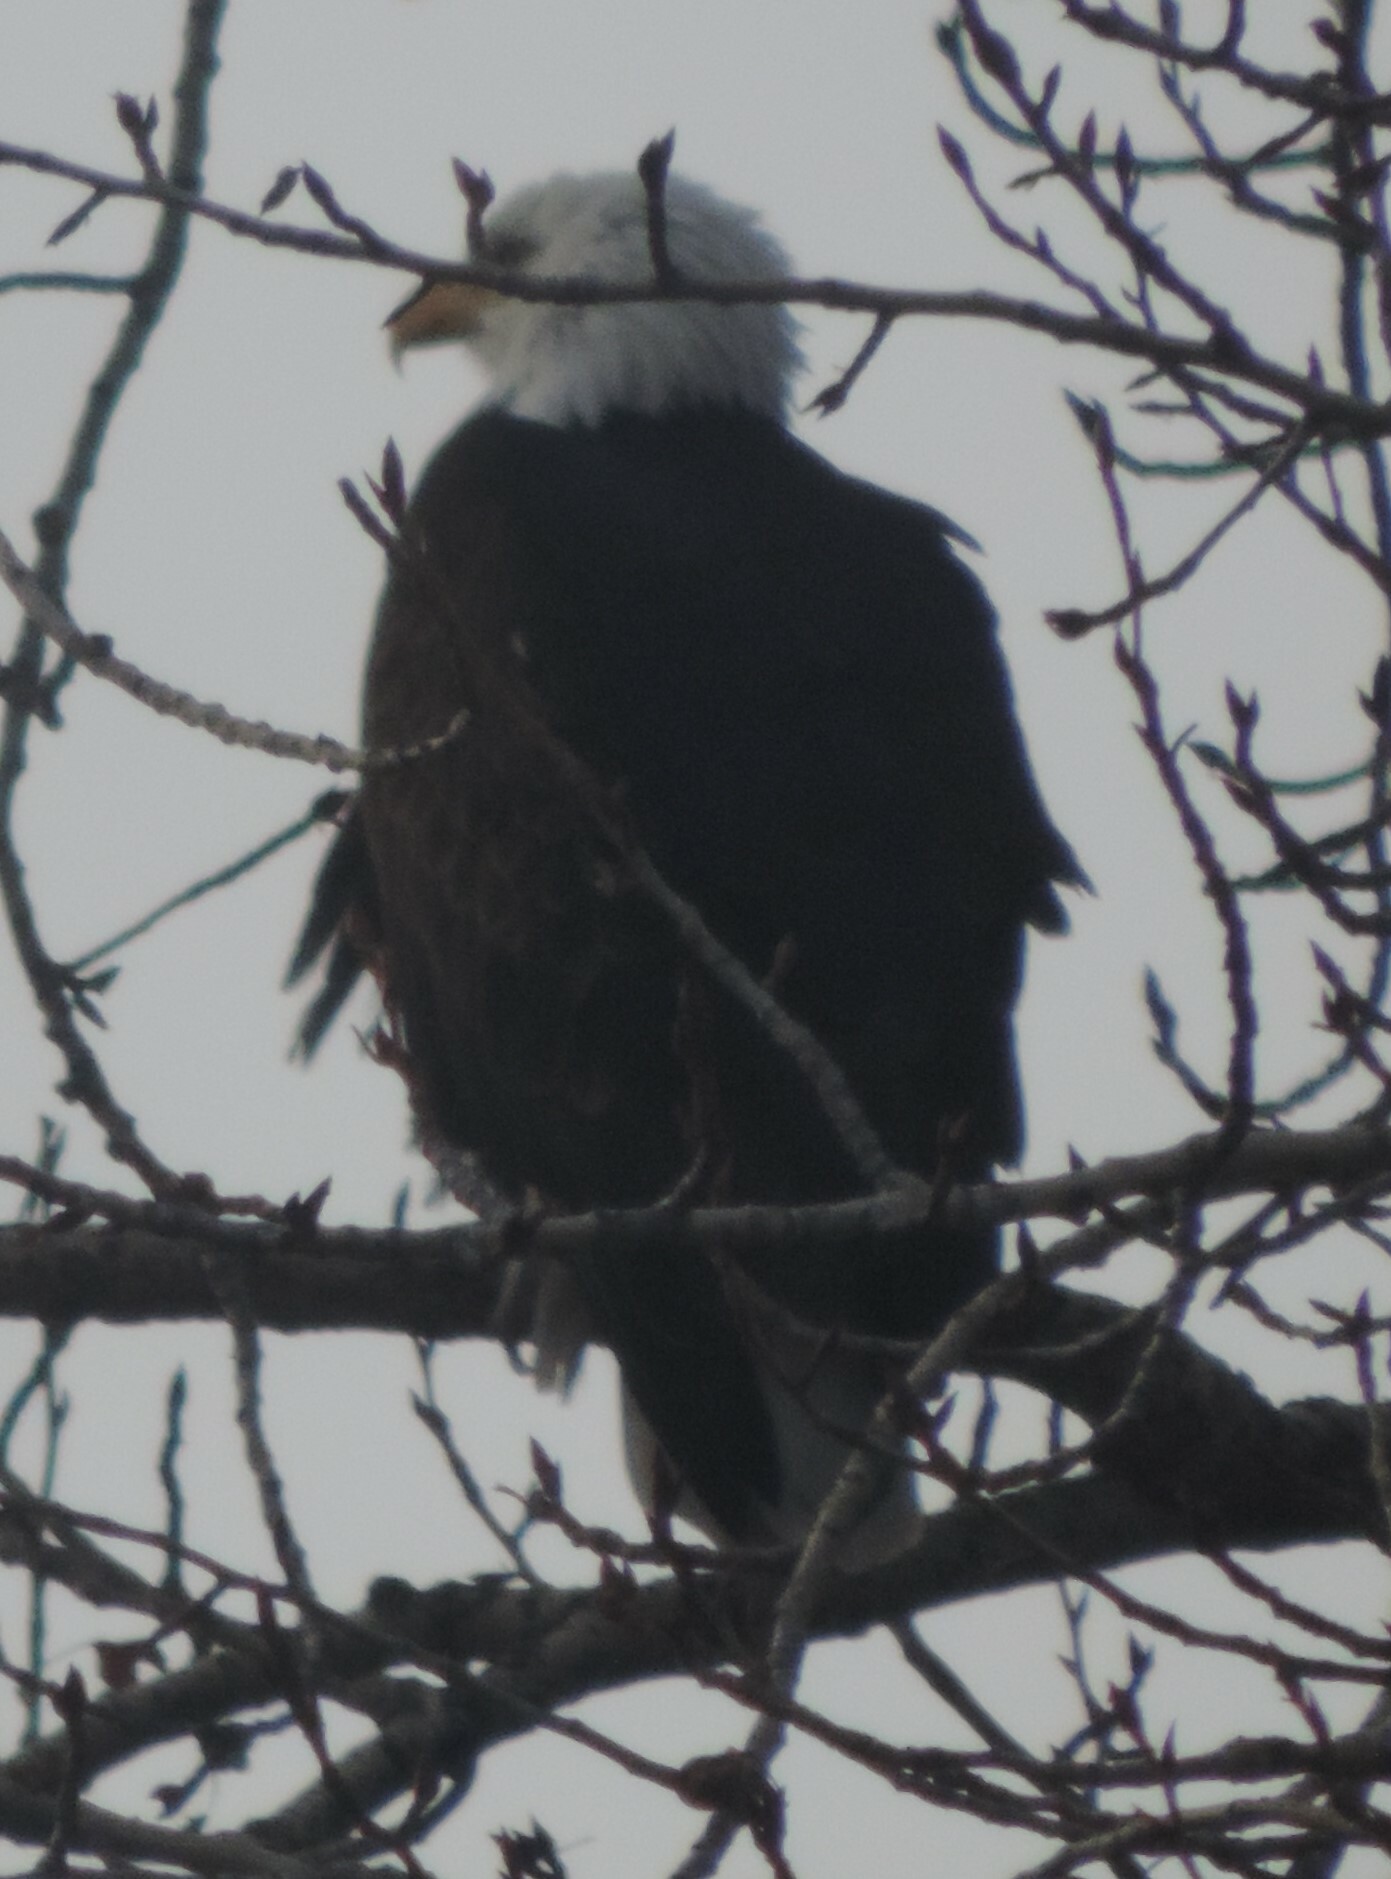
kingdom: Animalia
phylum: Chordata
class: Aves
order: Accipitriformes
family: Accipitridae
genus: Haliaeetus
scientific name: Haliaeetus leucocephalus
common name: Bald eagle
